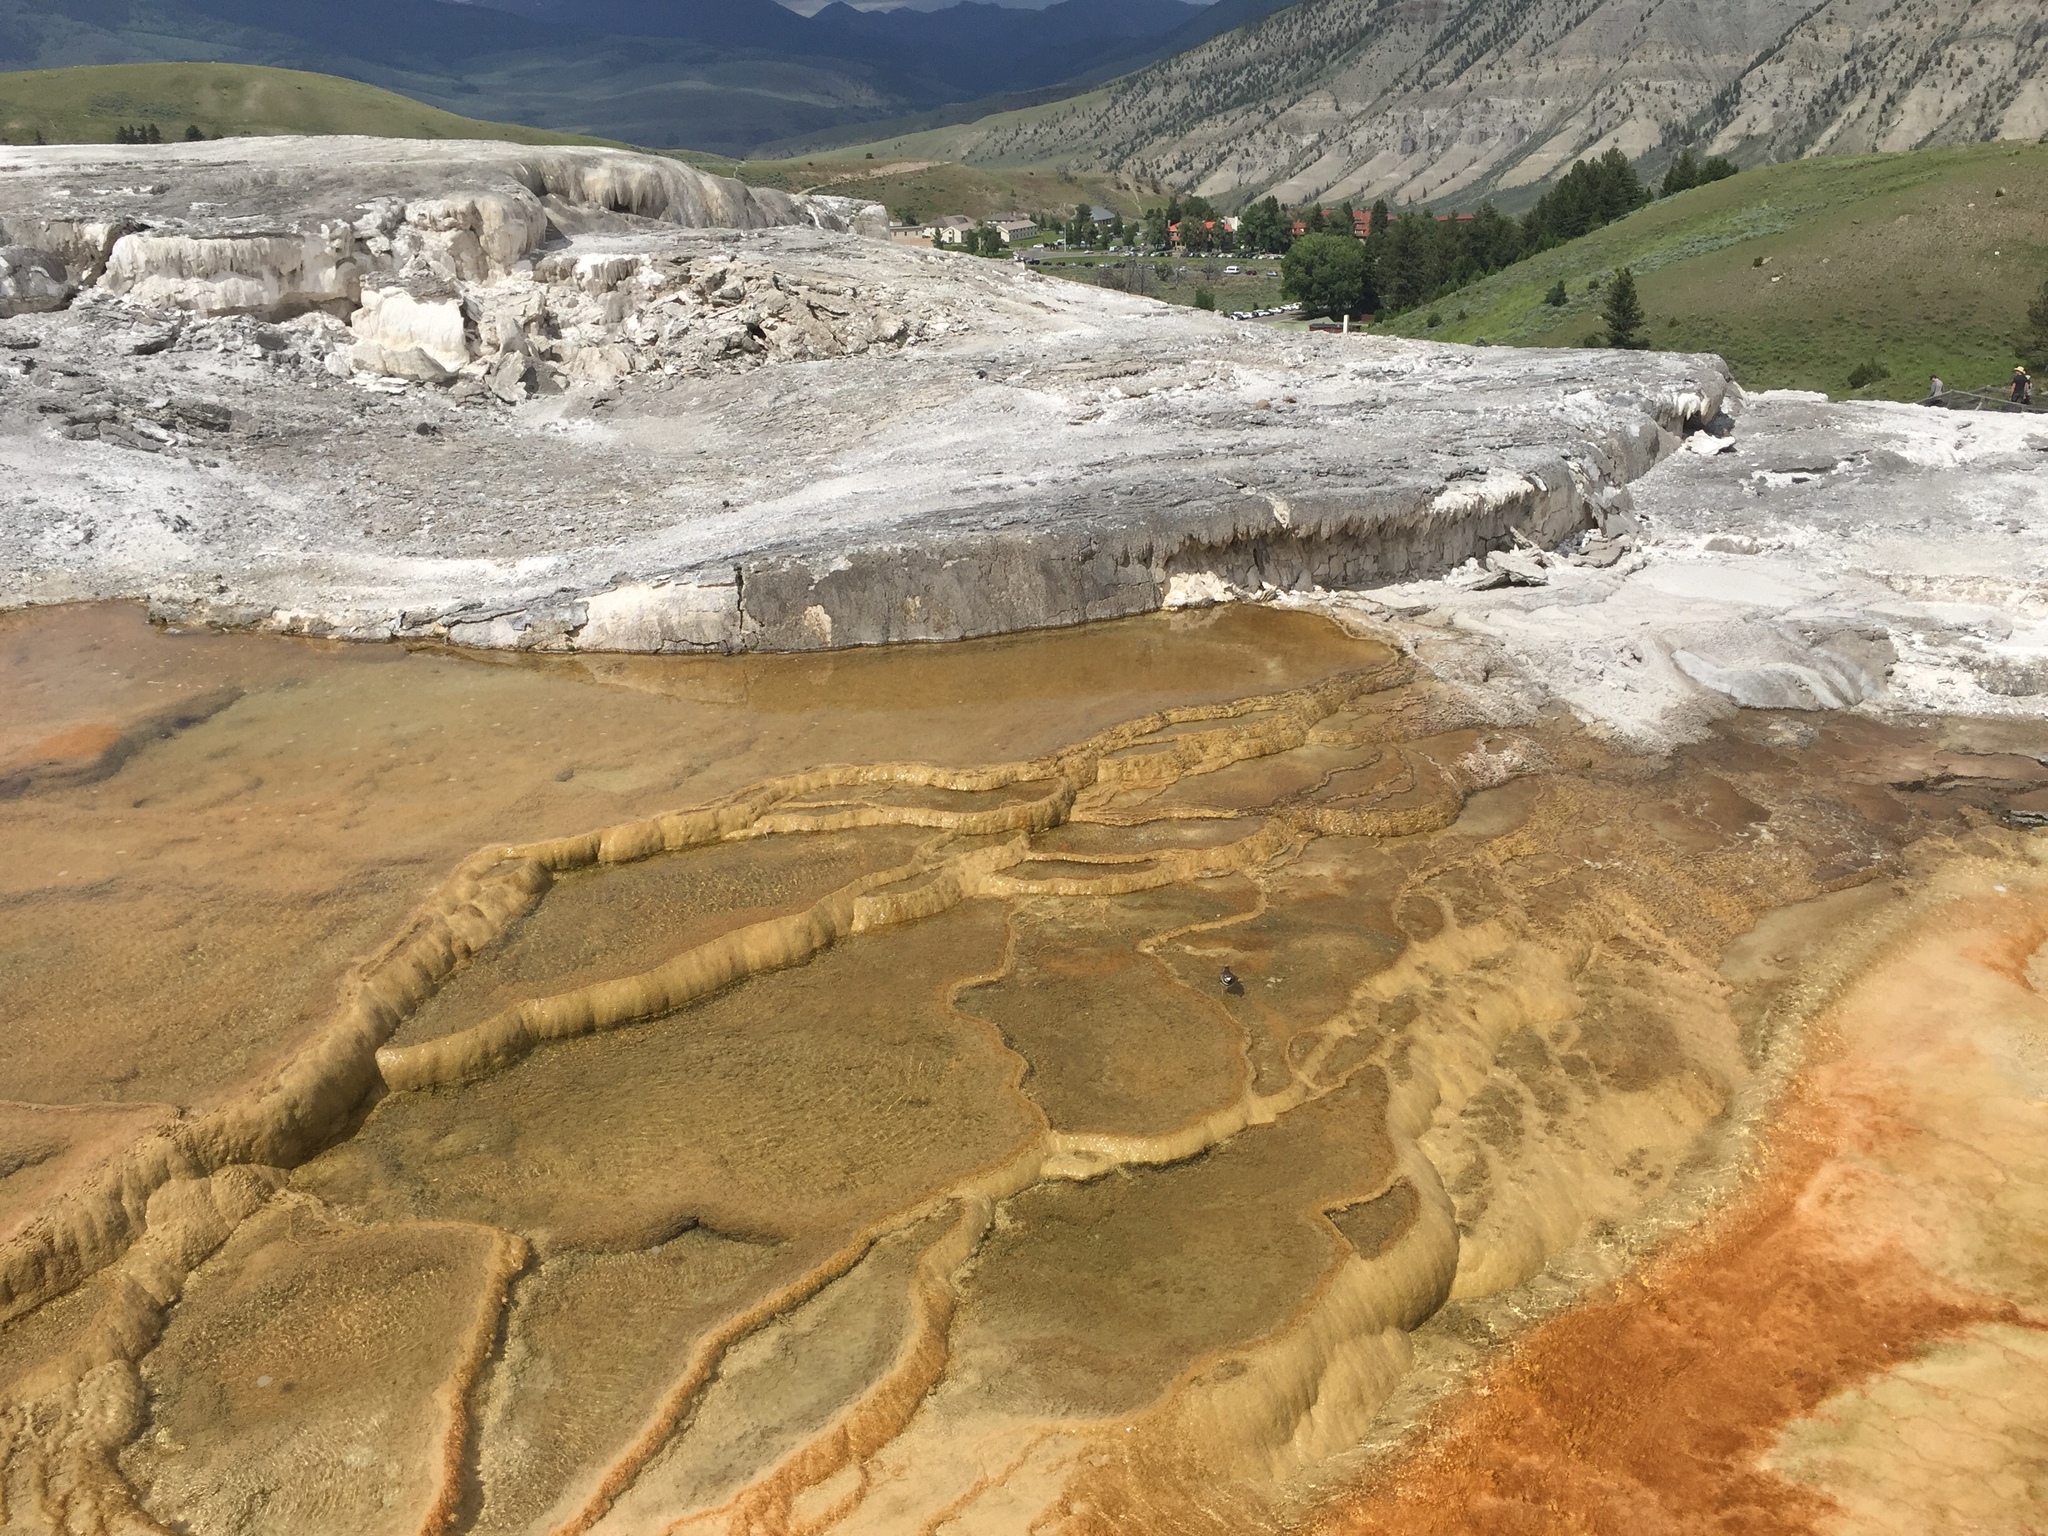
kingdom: Animalia
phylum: Chordata
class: Aves
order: Charadriiformes
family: Charadriidae
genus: Charadrius
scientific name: Charadrius vociferus
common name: Killdeer
